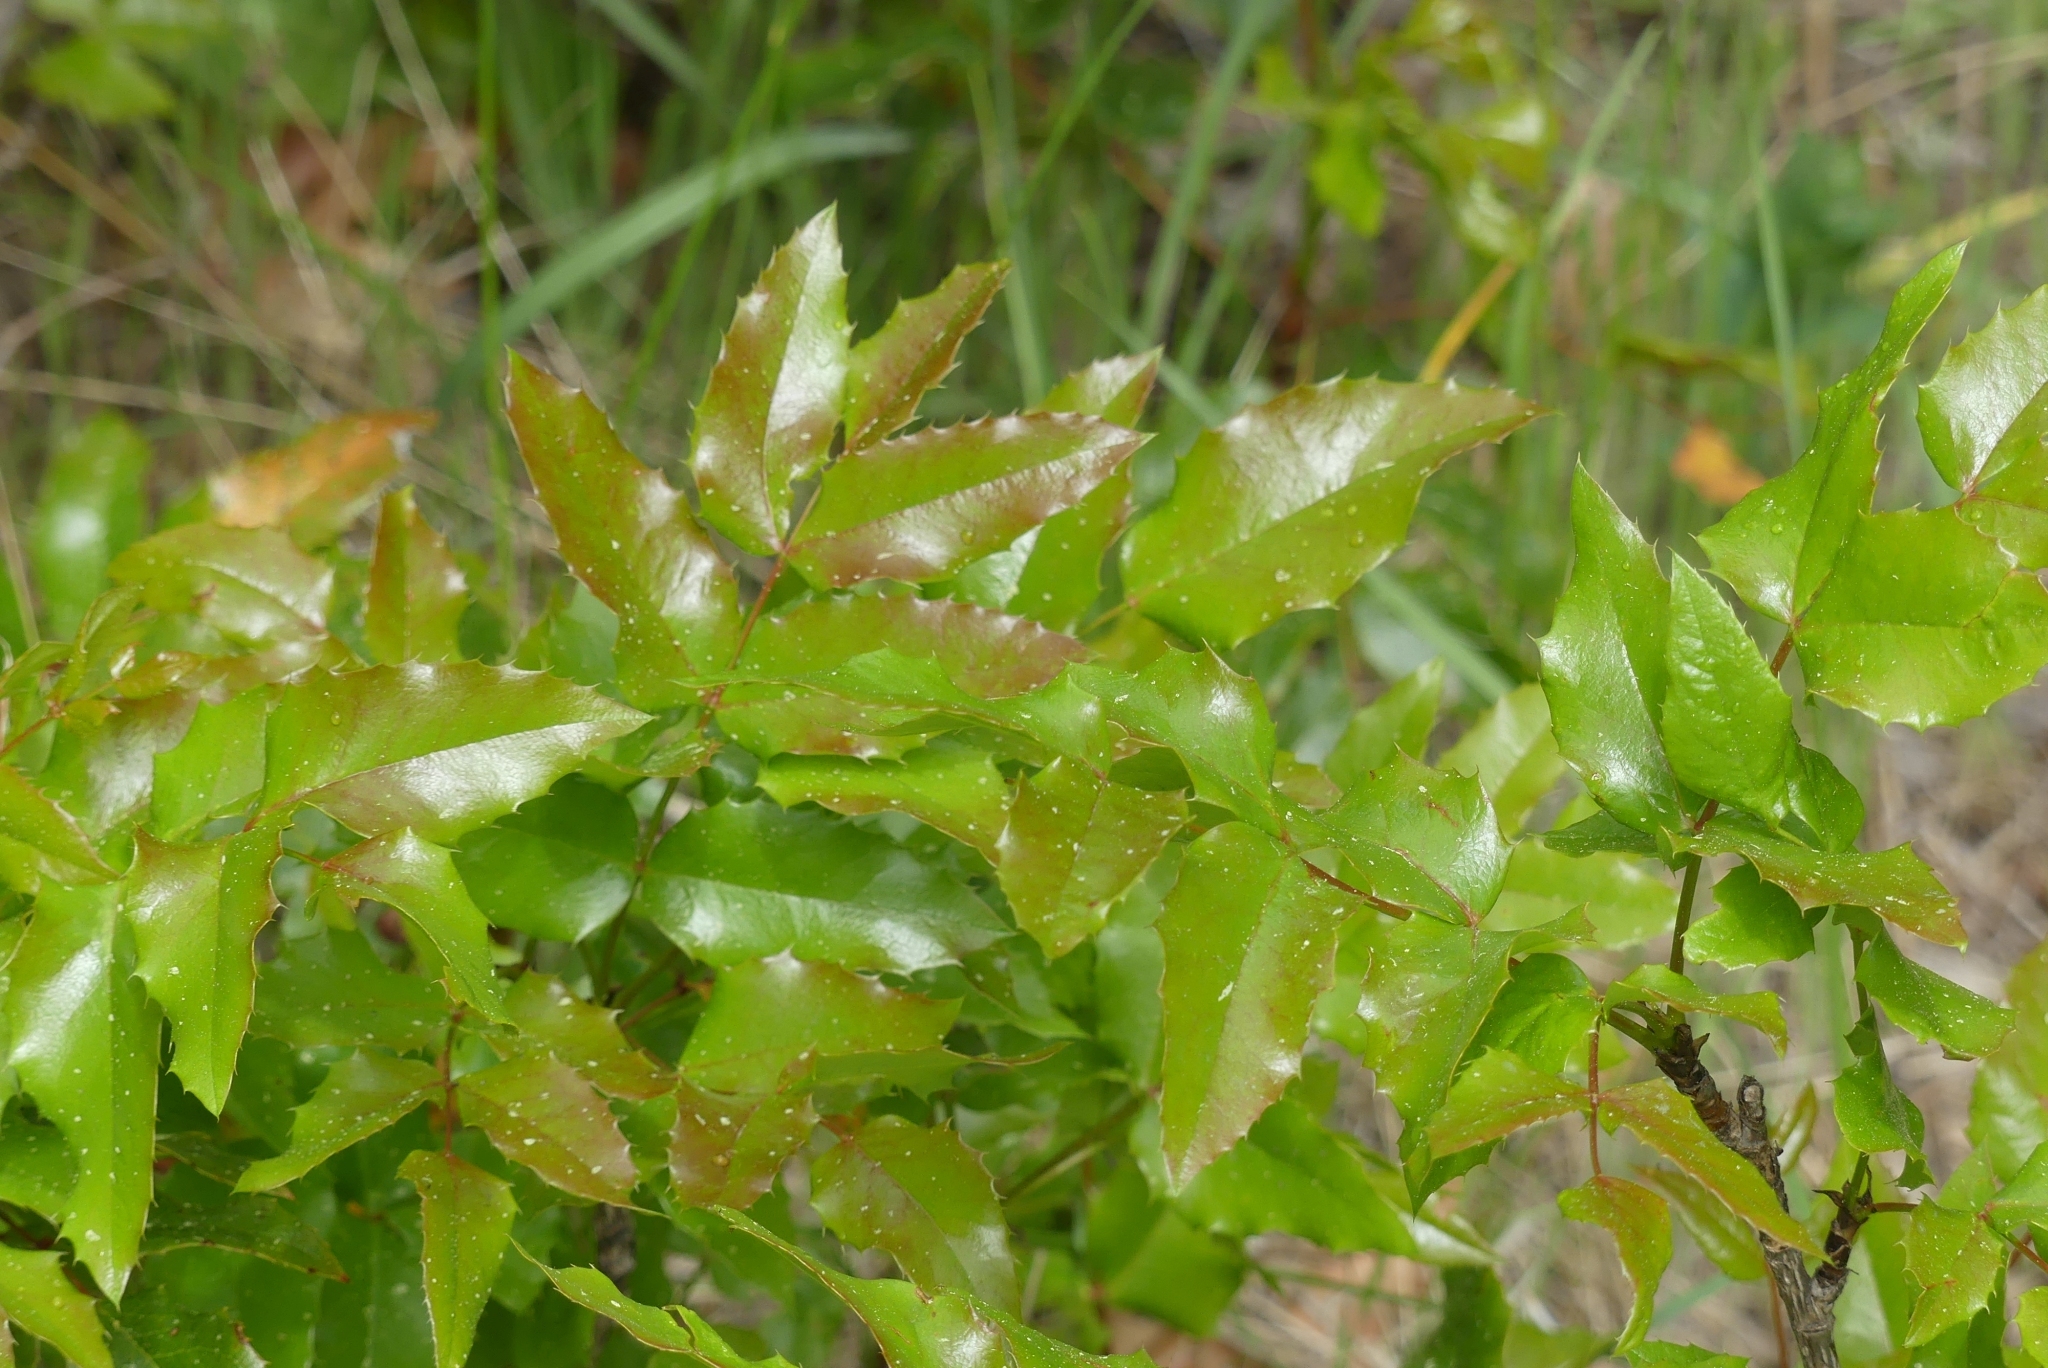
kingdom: Plantae
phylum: Tracheophyta
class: Magnoliopsida
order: Ranunculales
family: Berberidaceae
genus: Mahonia
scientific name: Mahonia aquifolium
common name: Oregon-grape
